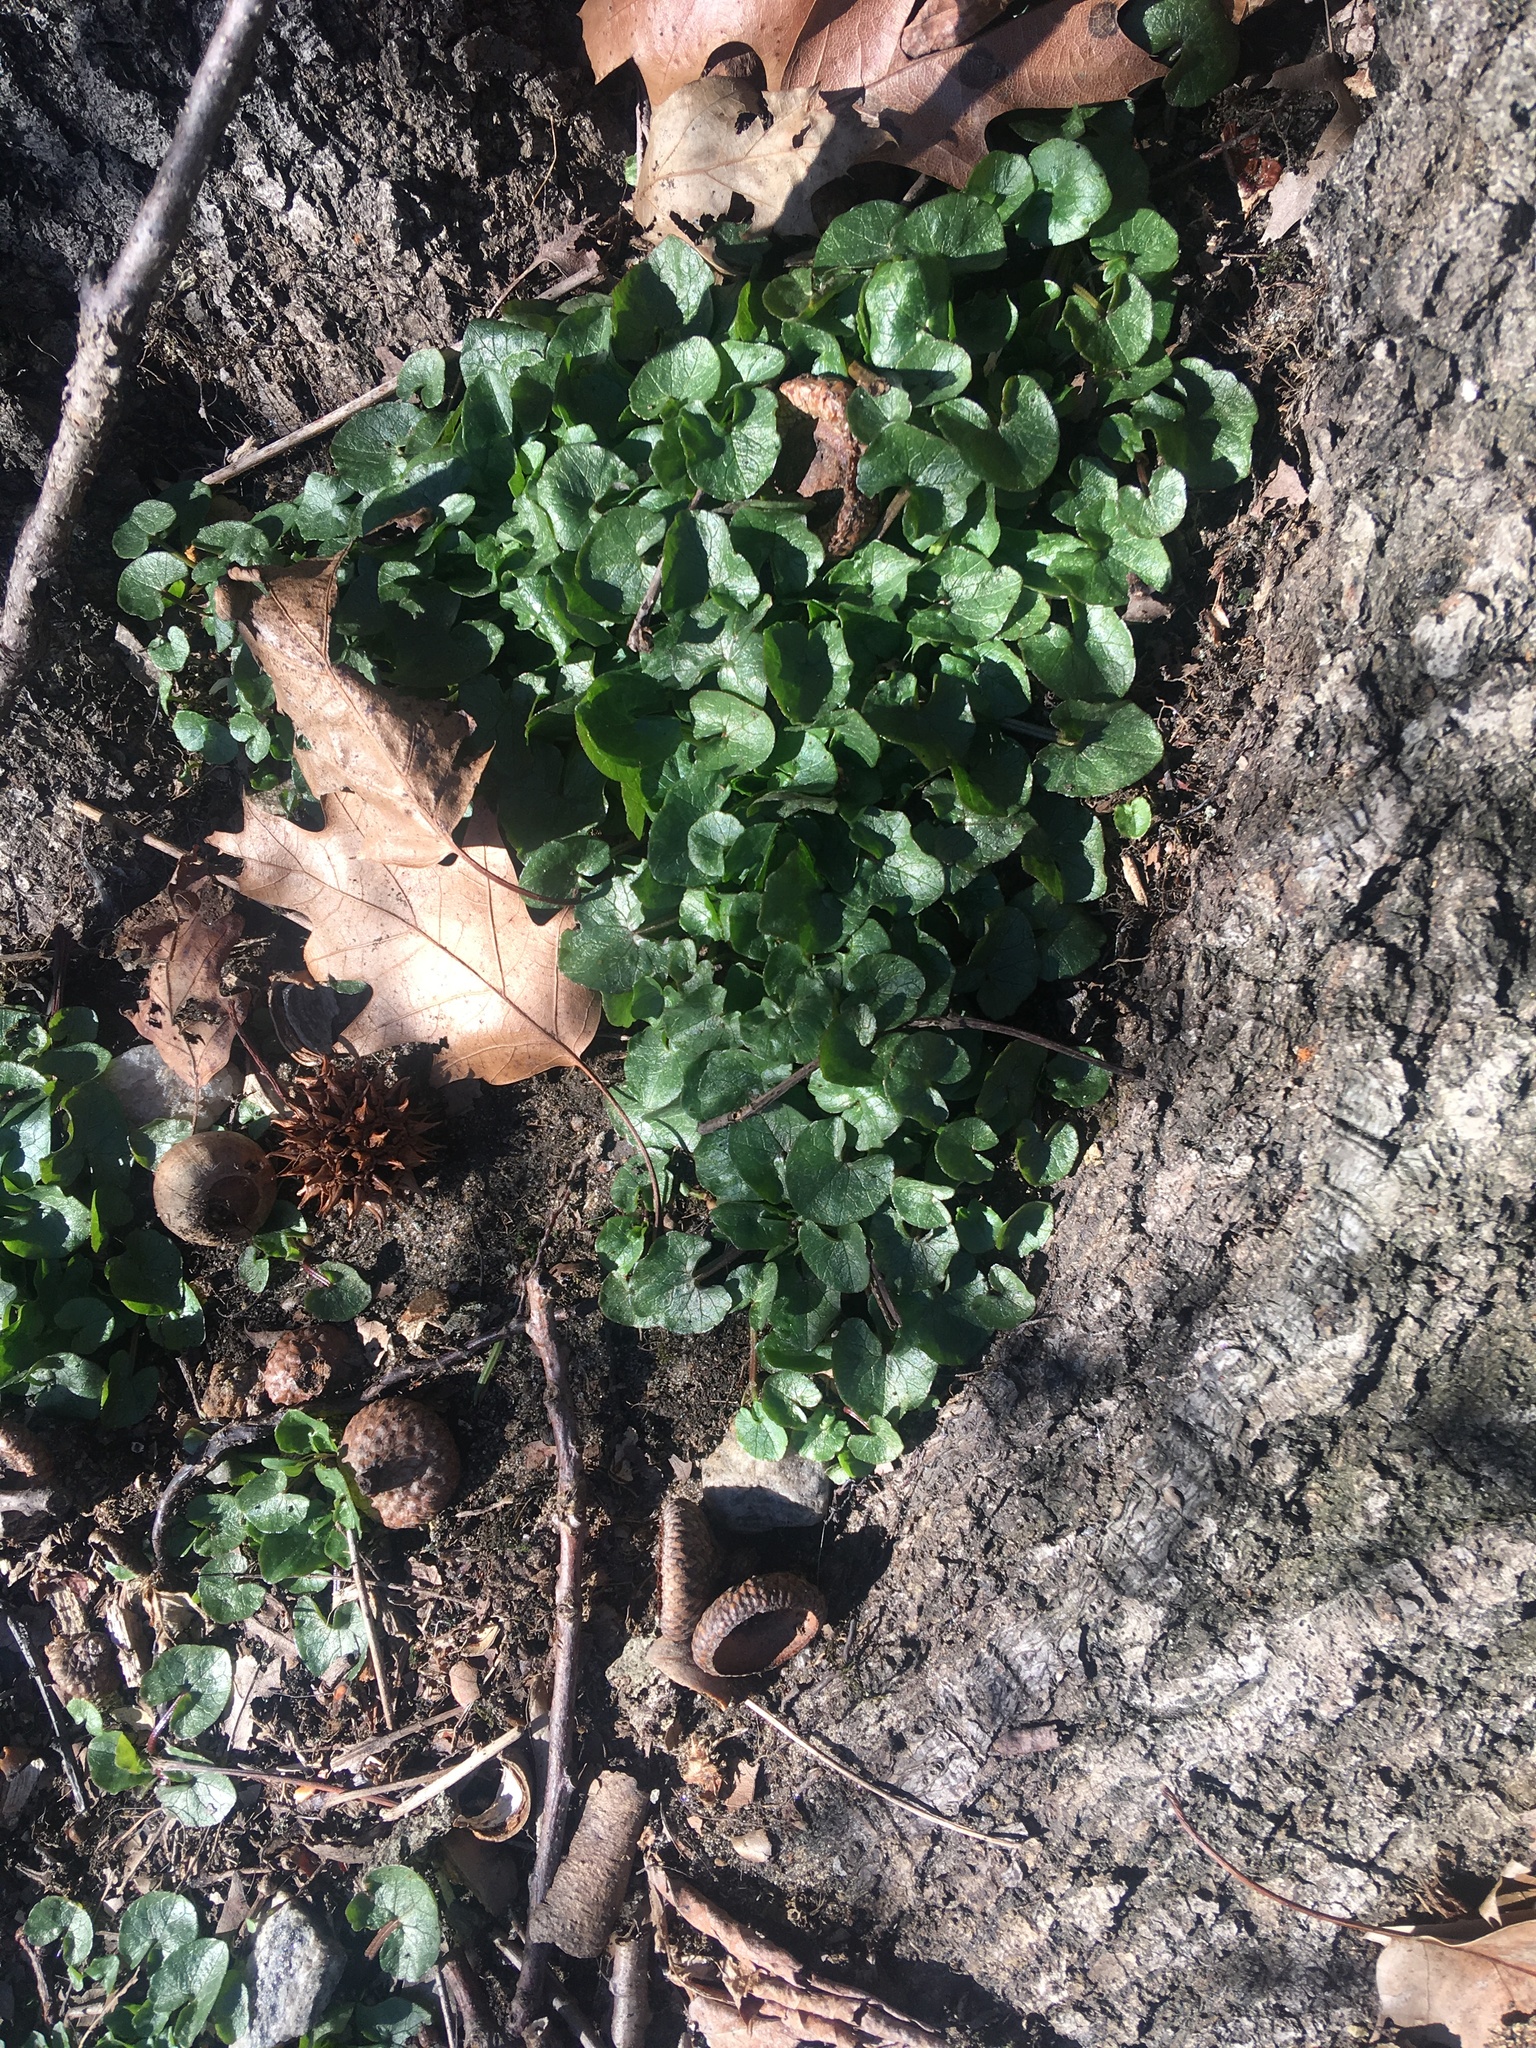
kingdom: Plantae
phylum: Tracheophyta
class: Magnoliopsida
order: Ranunculales
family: Ranunculaceae
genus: Ficaria
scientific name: Ficaria verna
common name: Lesser celandine
